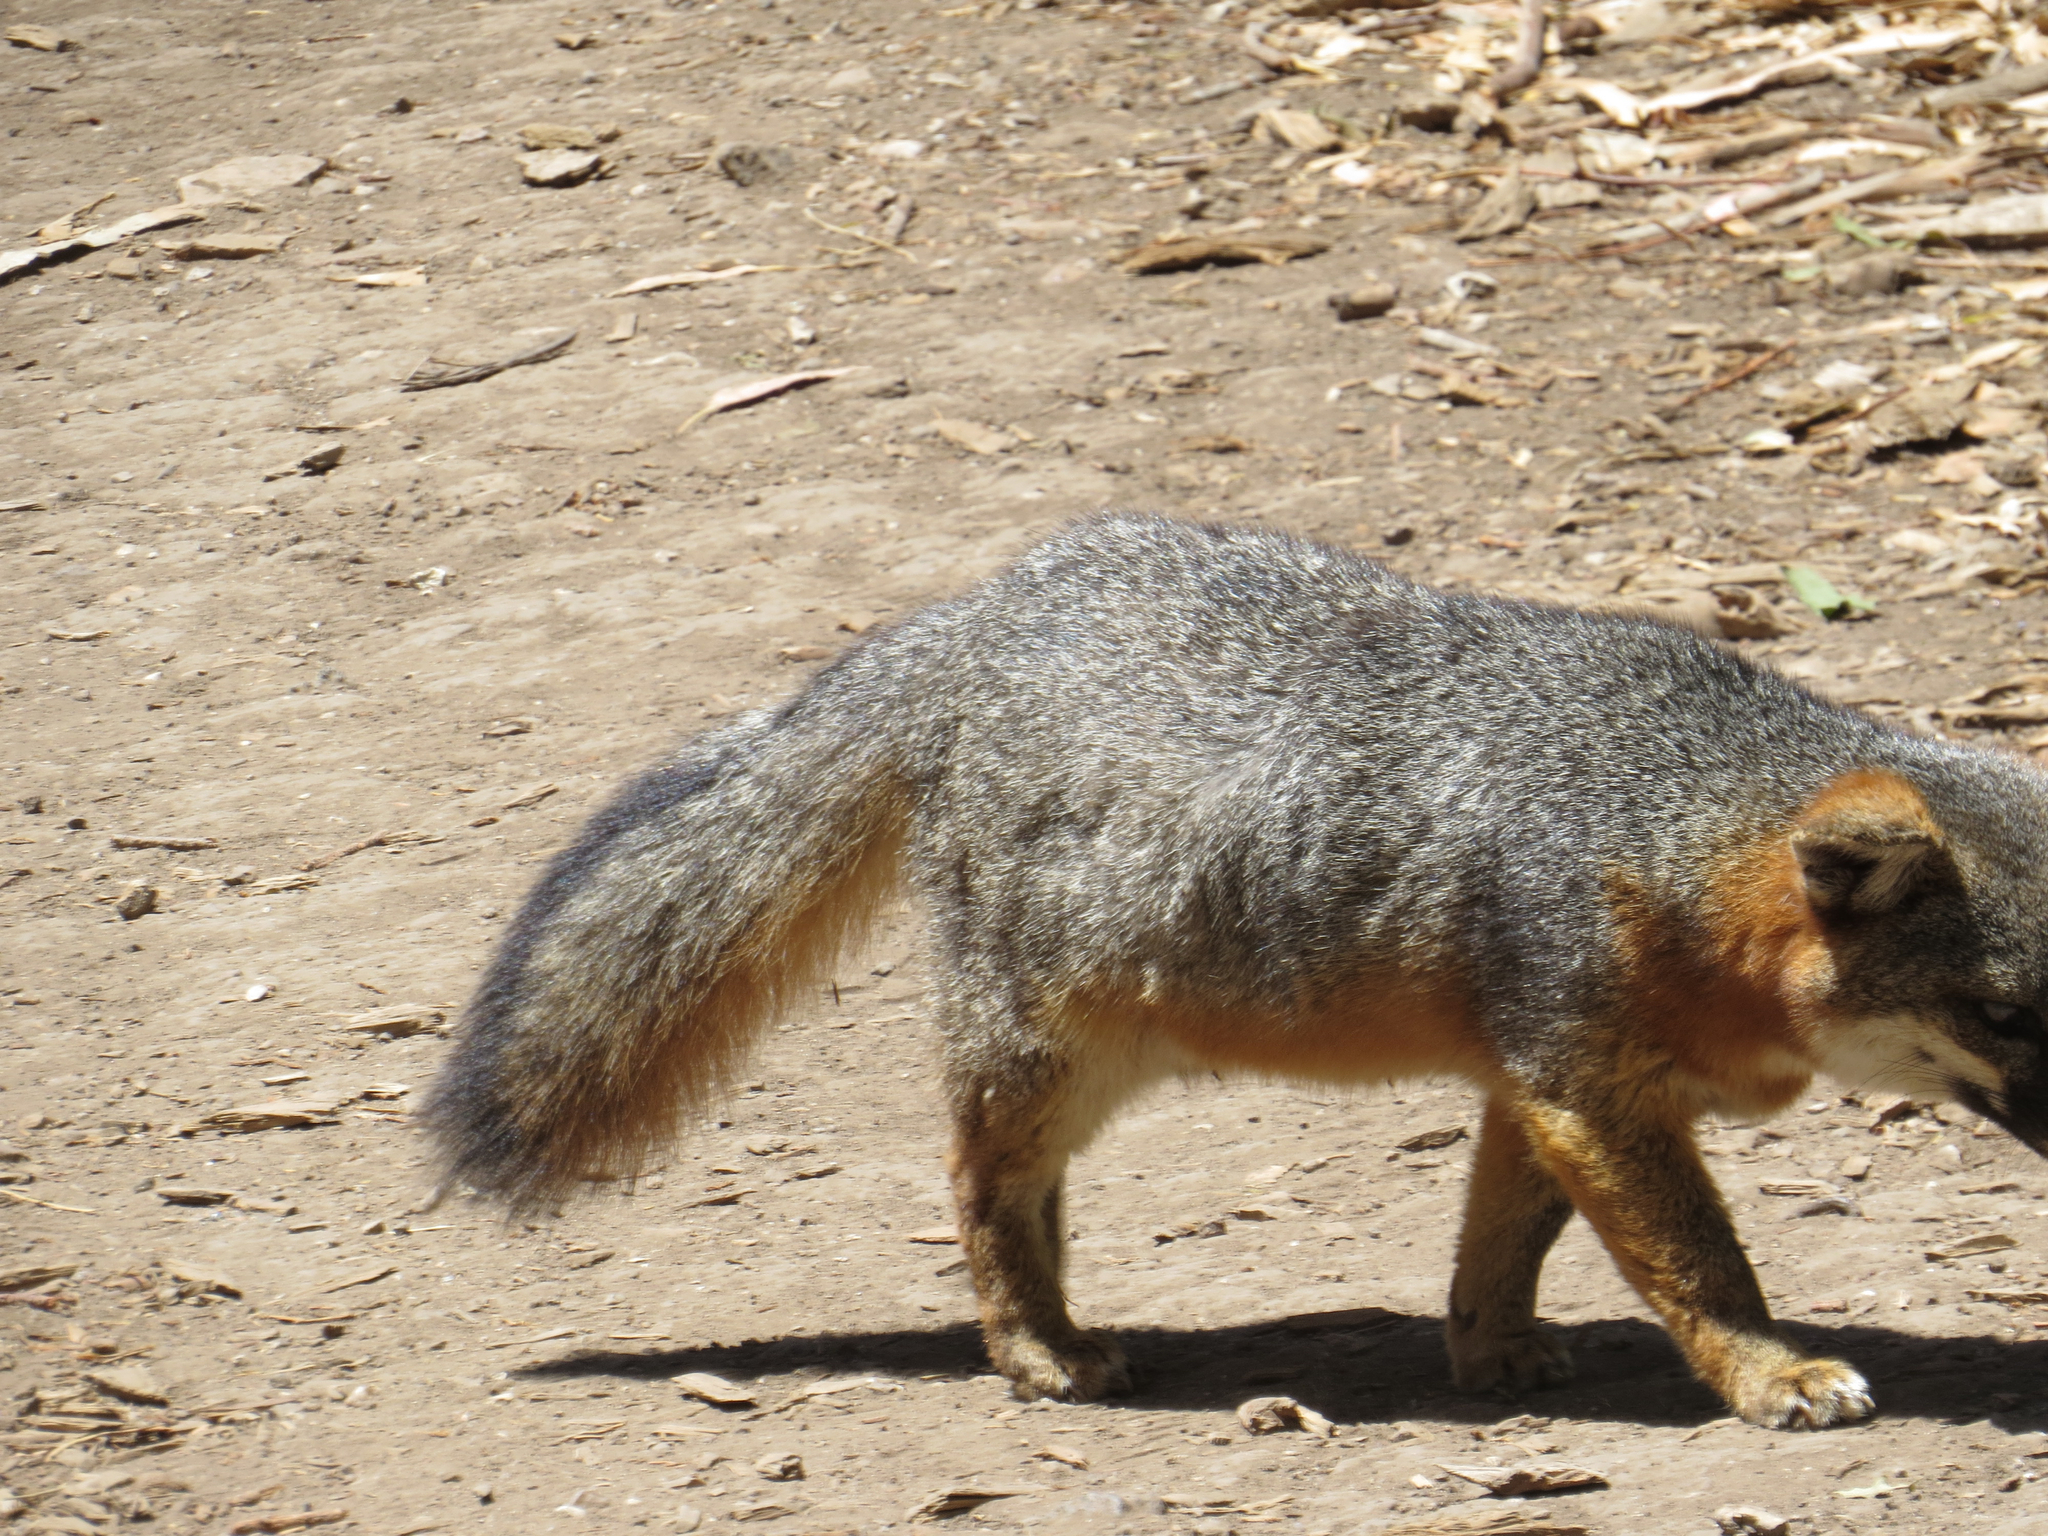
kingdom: Animalia
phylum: Chordata
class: Mammalia
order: Carnivora
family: Canidae
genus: Urocyon
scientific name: Urocyon littoralis
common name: Island gray fox
